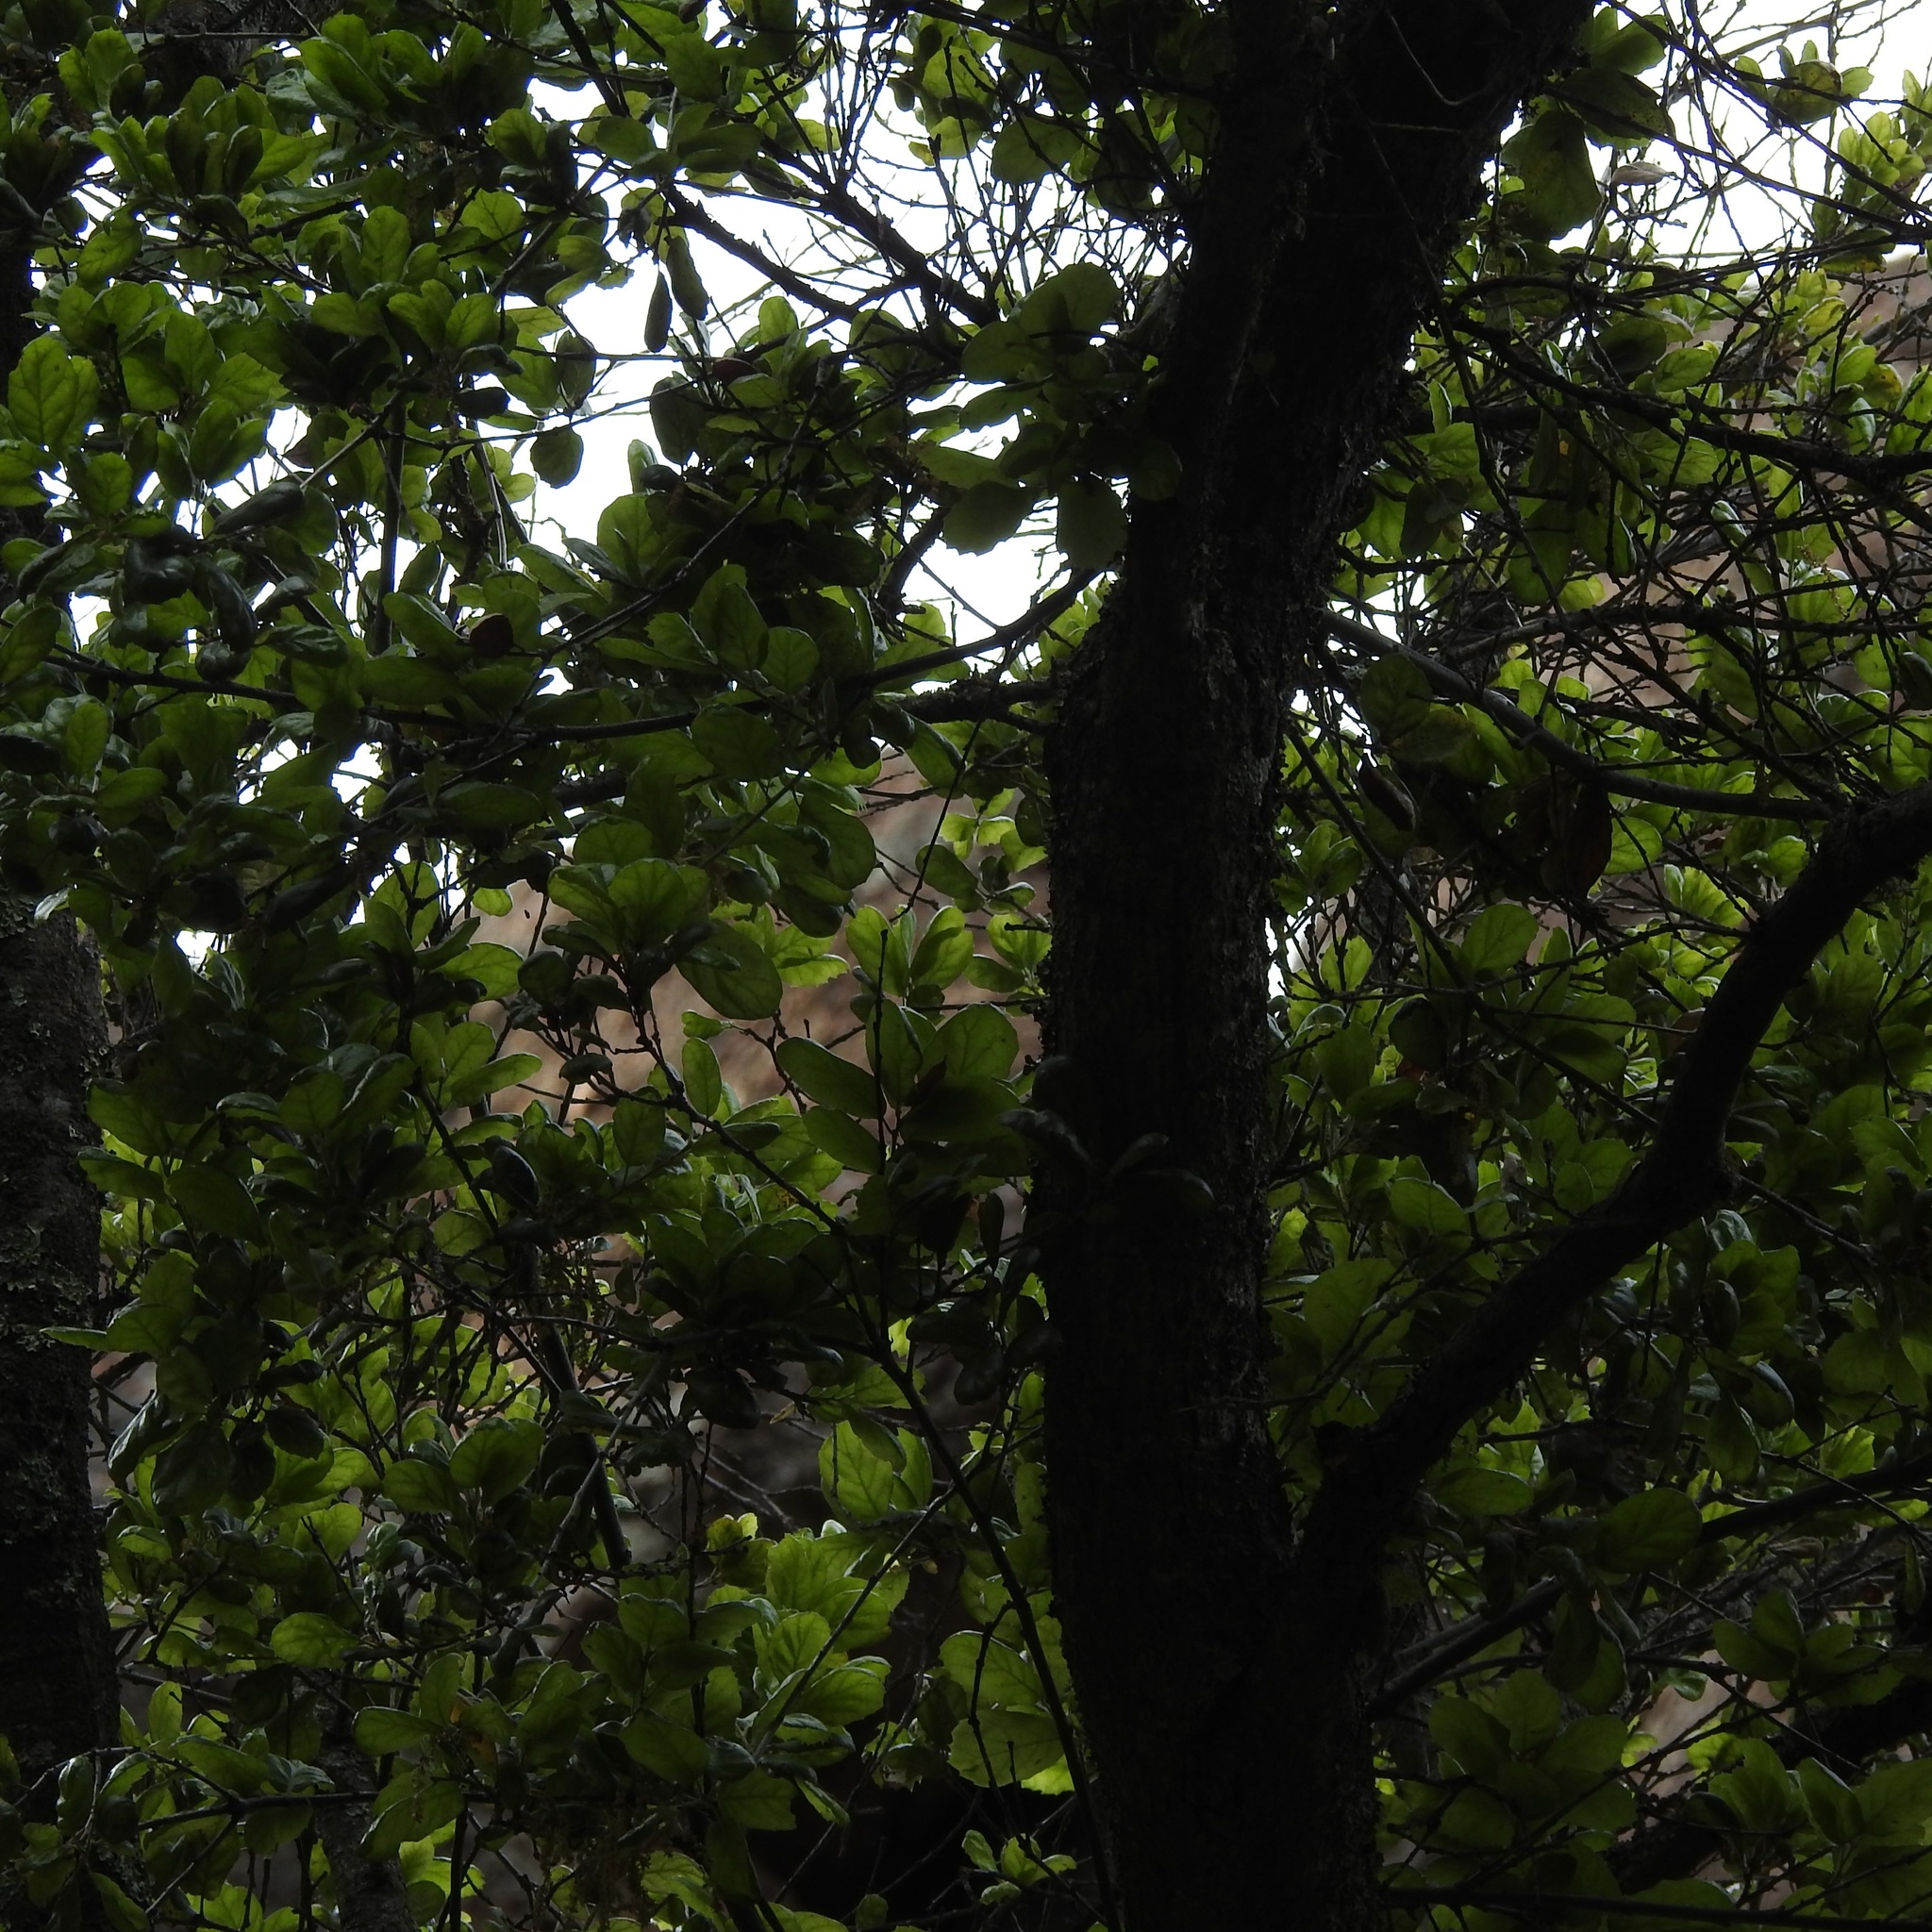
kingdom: Plantae
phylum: Tracheophyta
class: Magnoliopsida
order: Fagales
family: Fagaceae
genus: Quercus
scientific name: Quercus agrifolia
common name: California live oak
